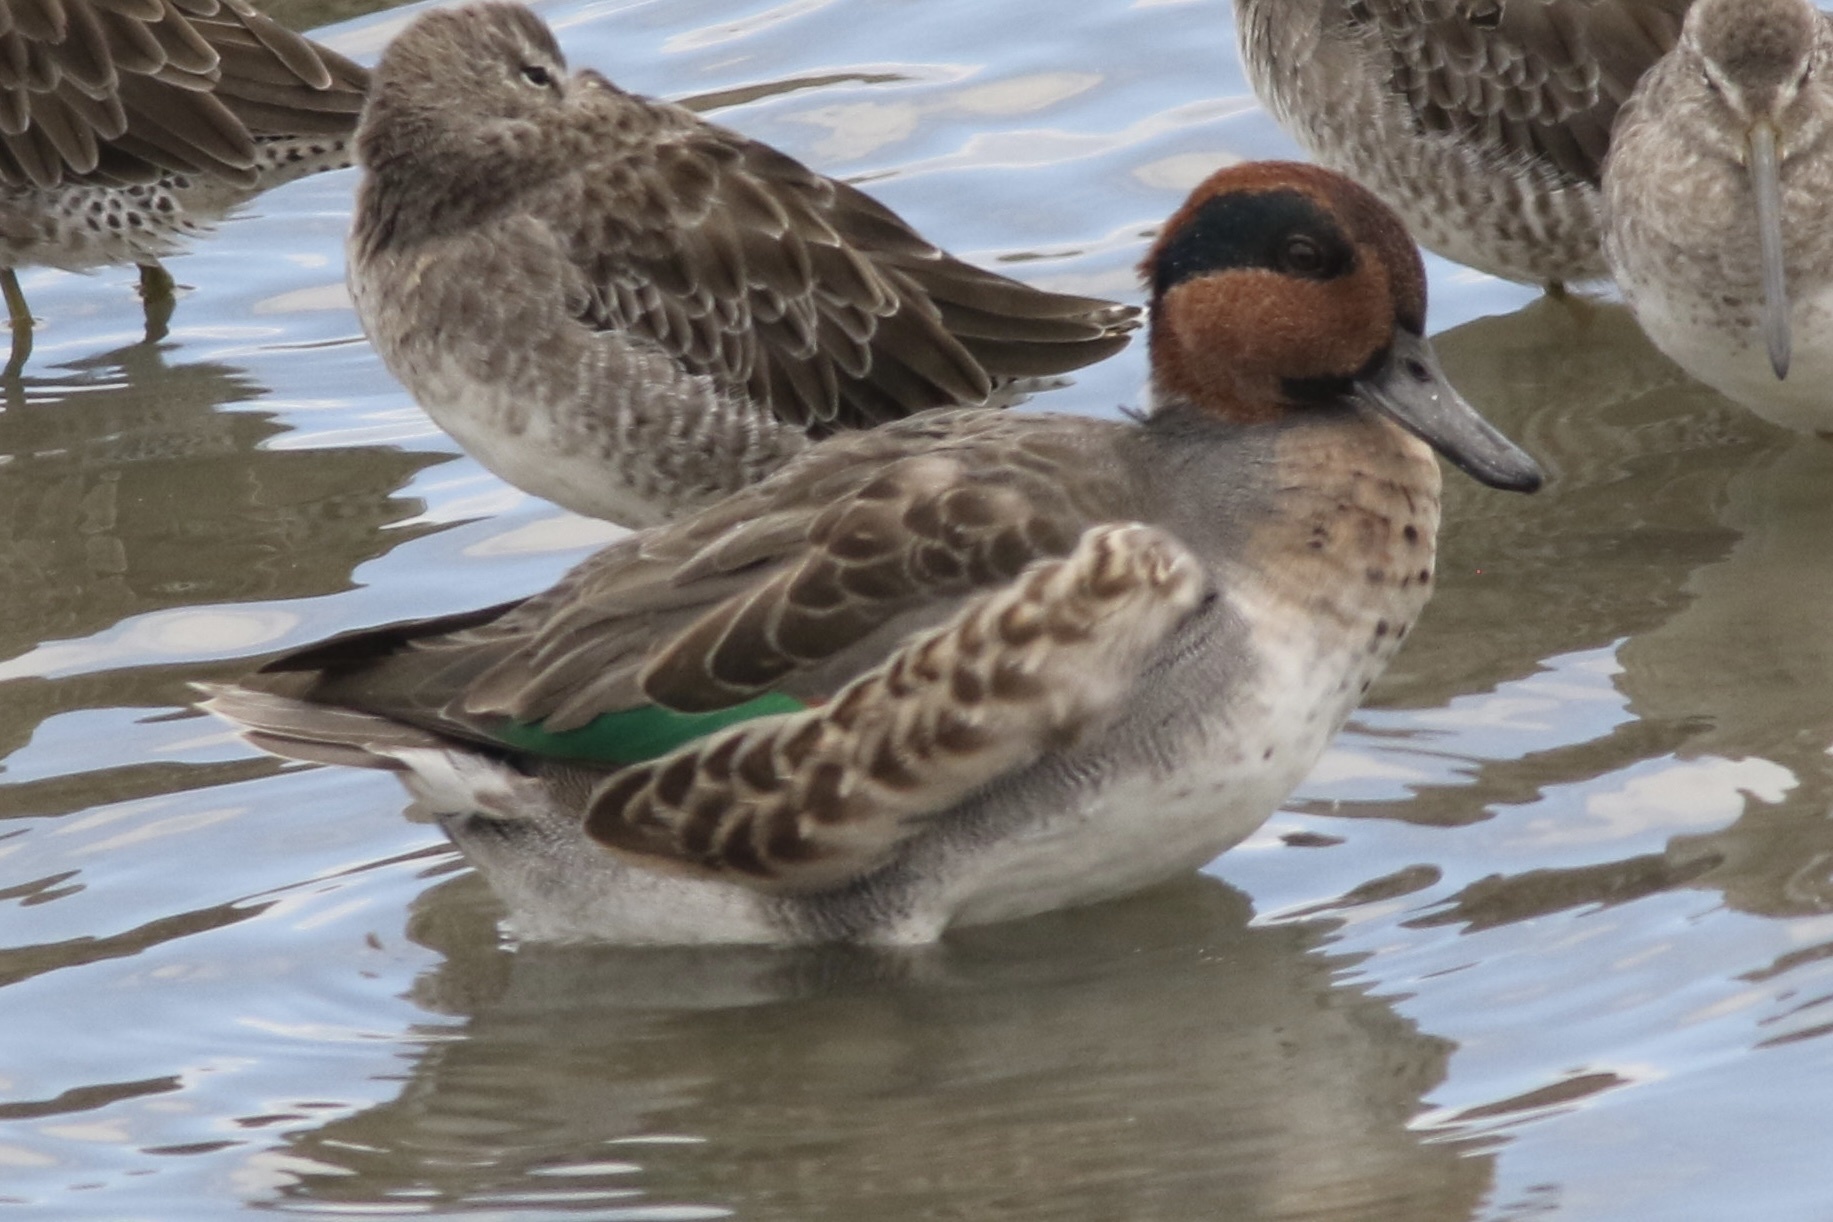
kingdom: Animalia
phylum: Chordata
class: Aves
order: Anseriformes
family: Anatidae
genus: Anas
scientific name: Anas crecca
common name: Eurasian teal
